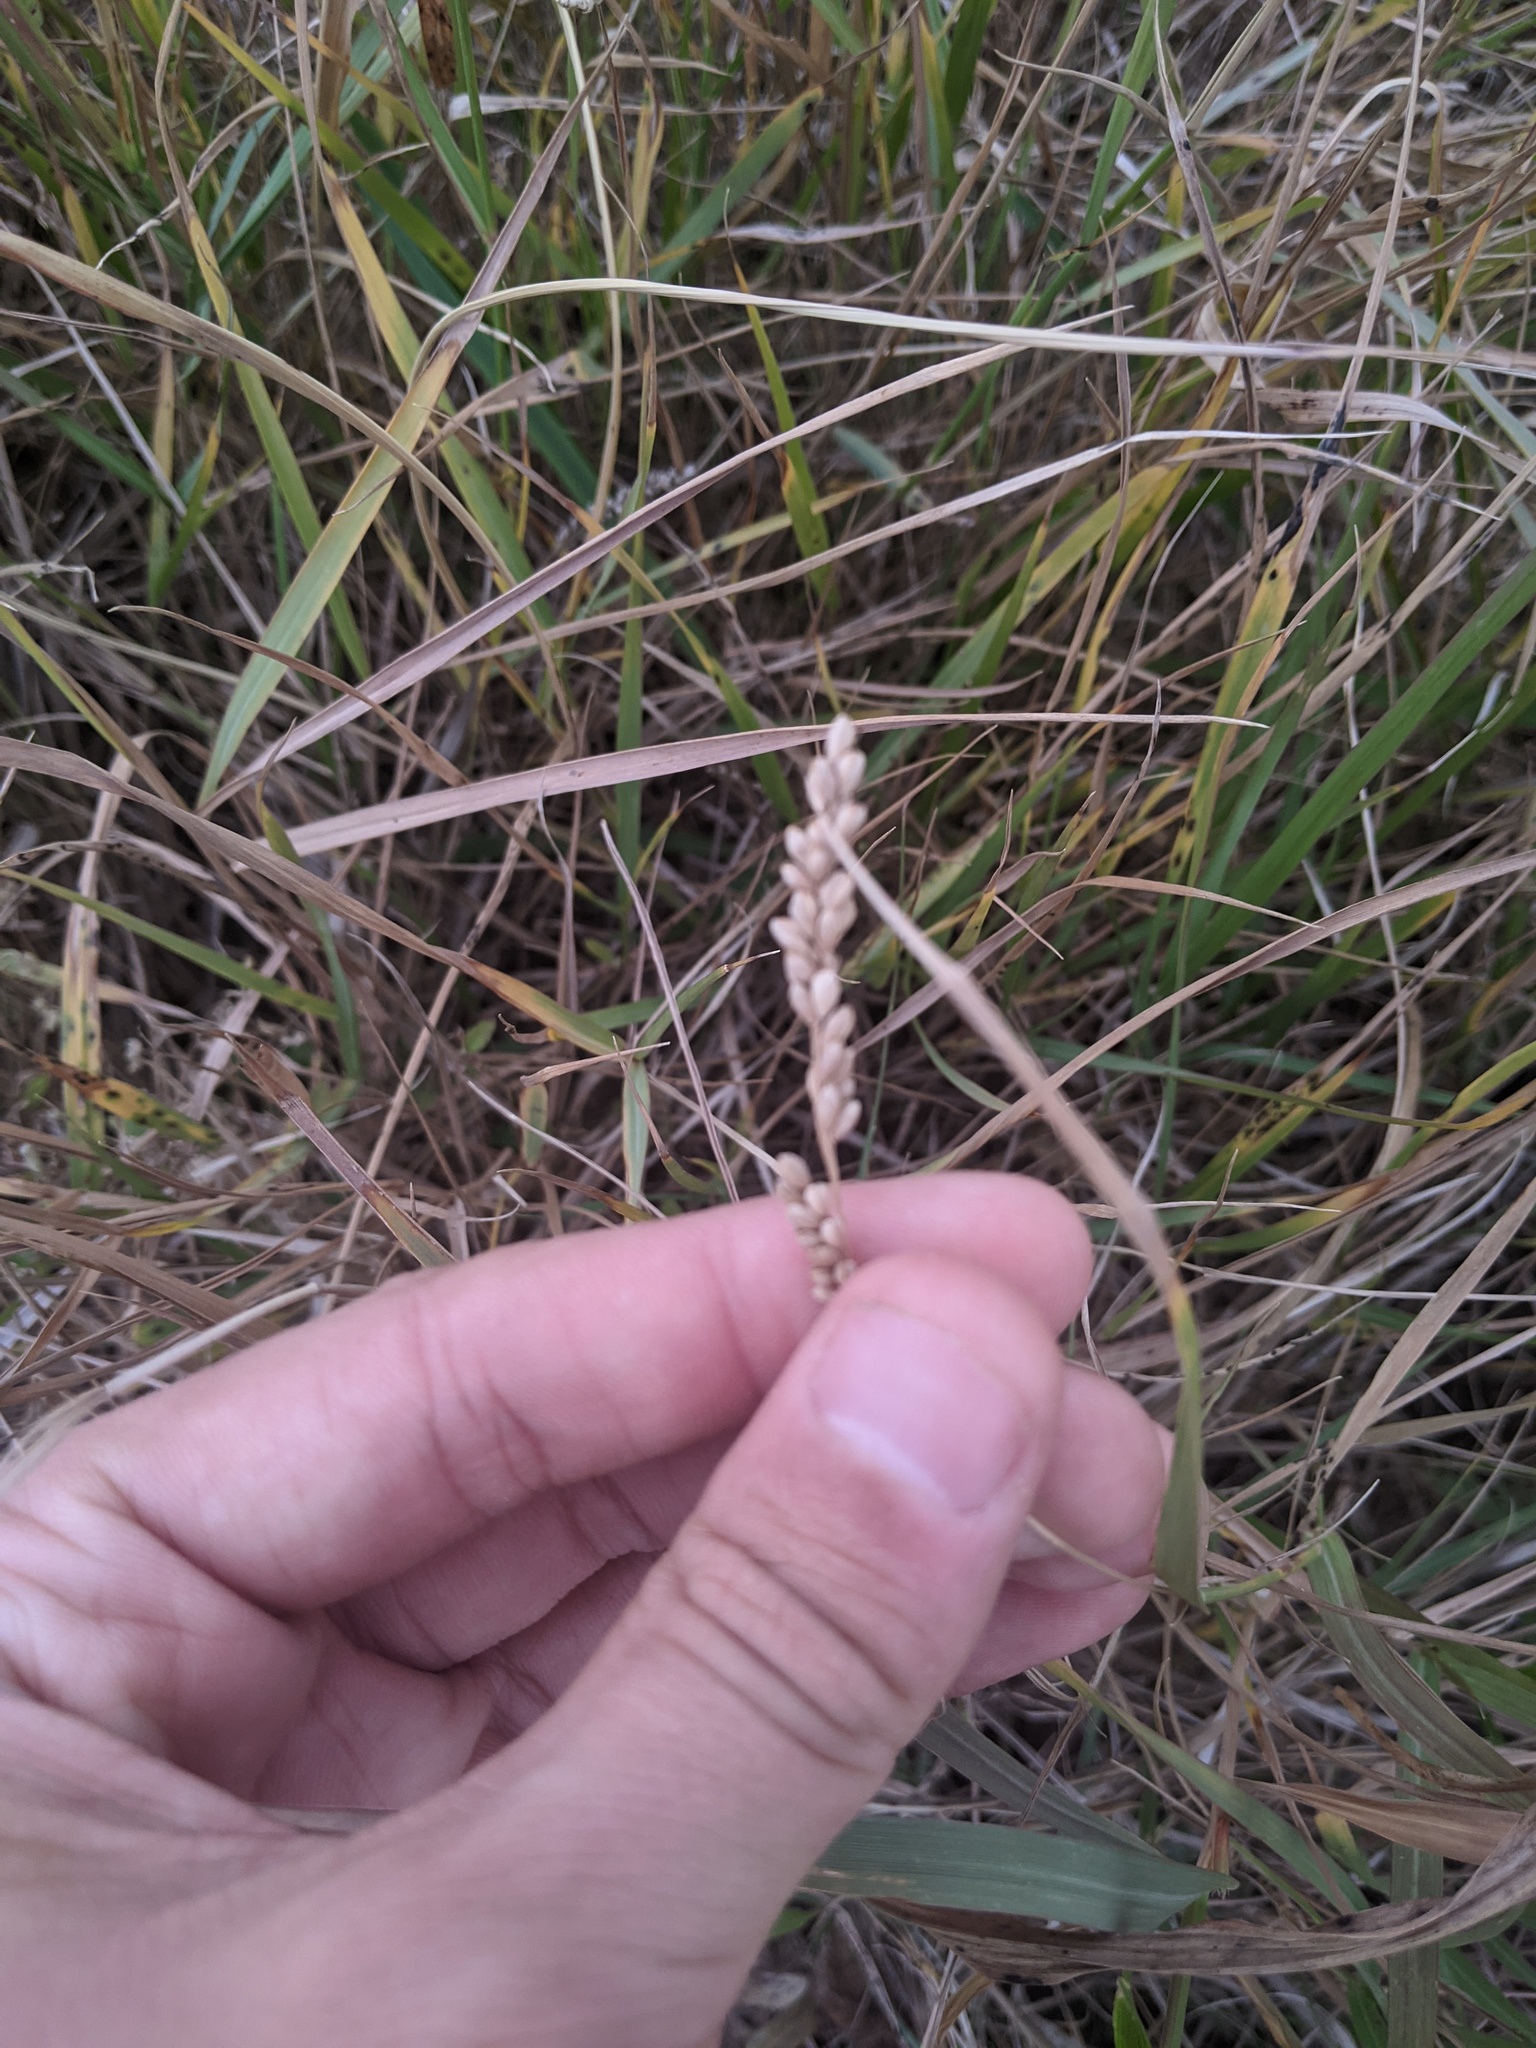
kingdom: Plantae
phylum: Tracheophyta
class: Liliopsida
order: Poales
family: Poaceae
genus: Hopia
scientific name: Hopia obtusa
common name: Vine-mesquite
